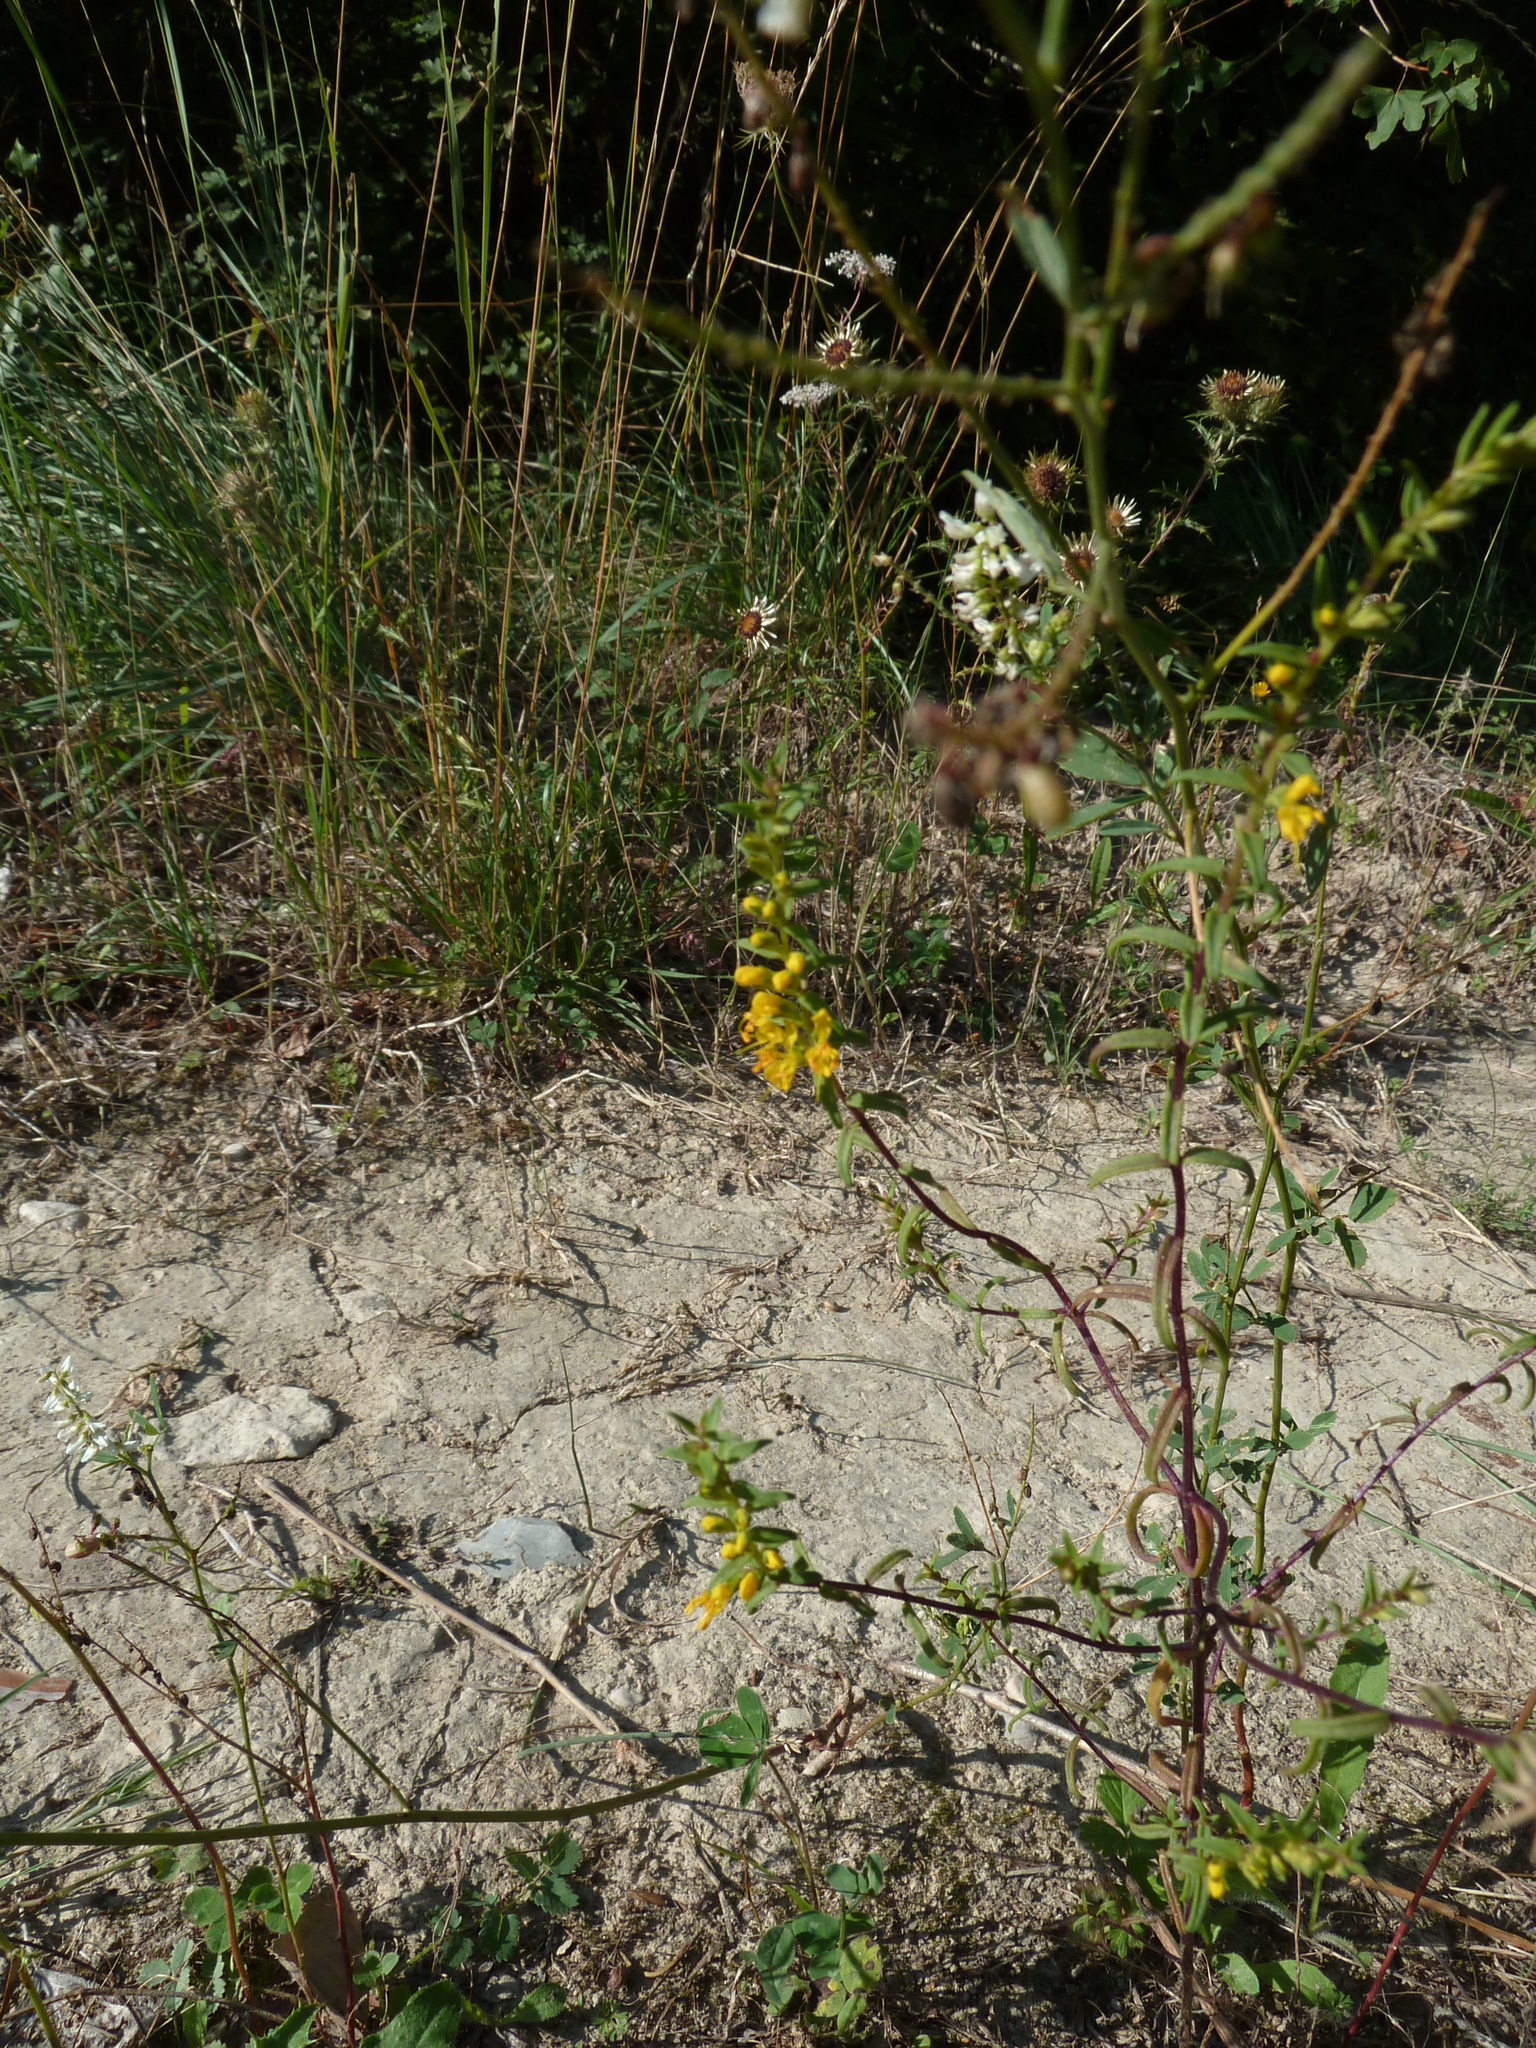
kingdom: Plantae
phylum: Tracheophyta
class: Magnoliopsida
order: Lamiales
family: Orobanchaceae
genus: Odontites
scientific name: Odontites luteus
